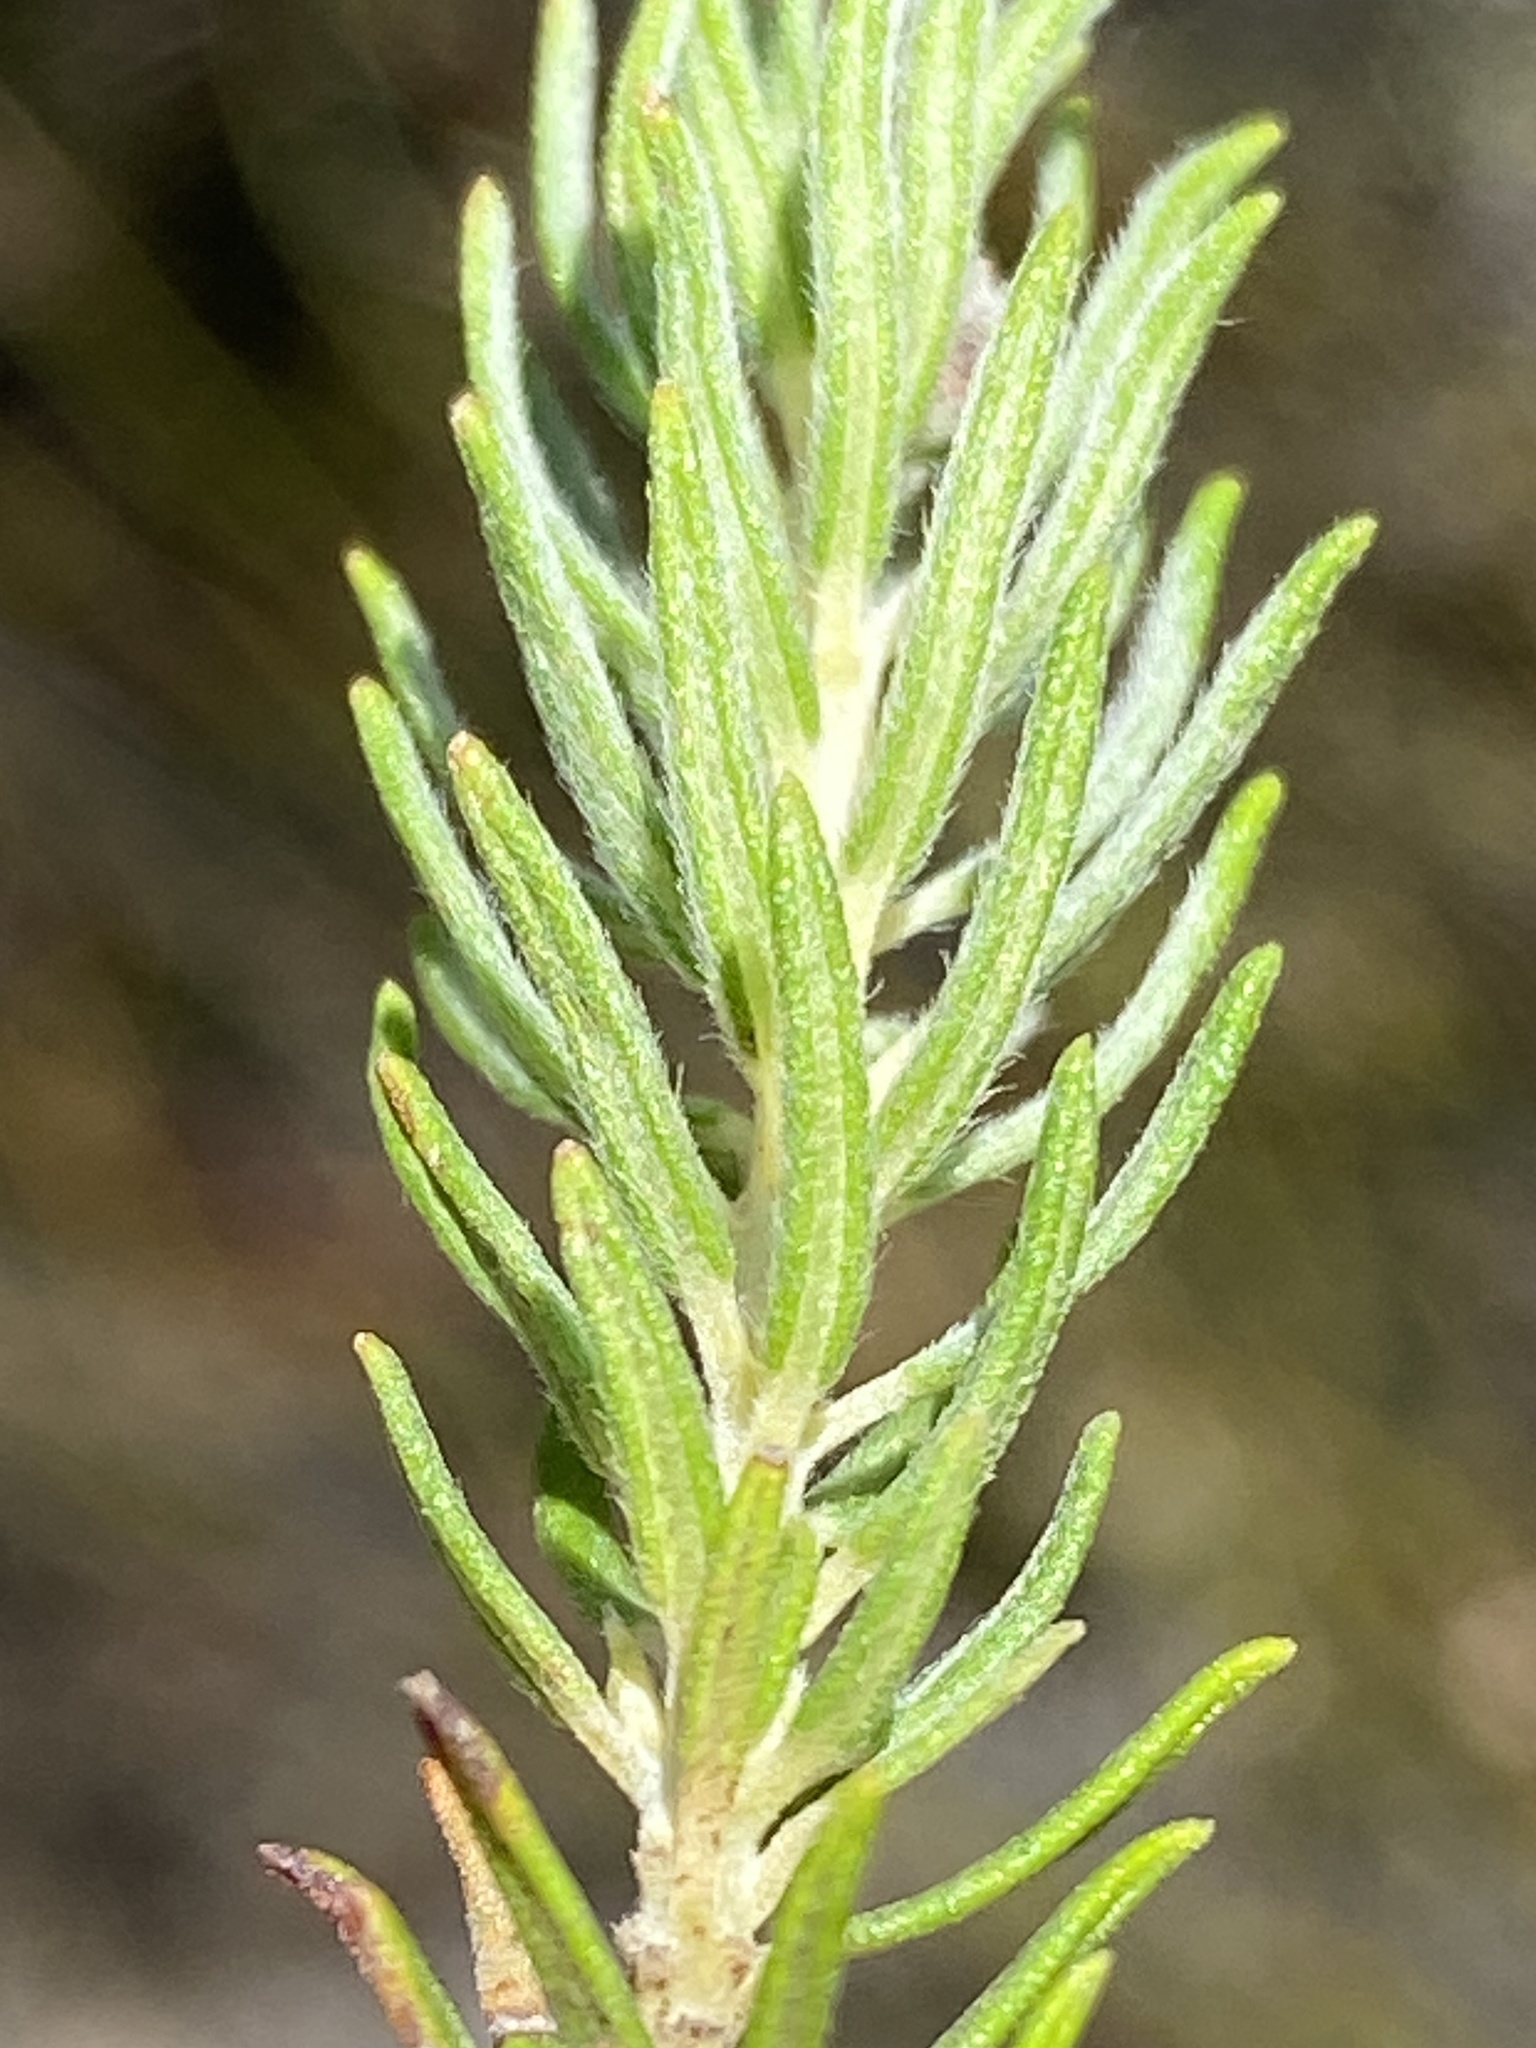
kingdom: Plantae
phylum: Tracheophyta
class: Magnoliopsida
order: Rosales
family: Rhamnaceae
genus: Phylica
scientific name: Phylica ambigua
